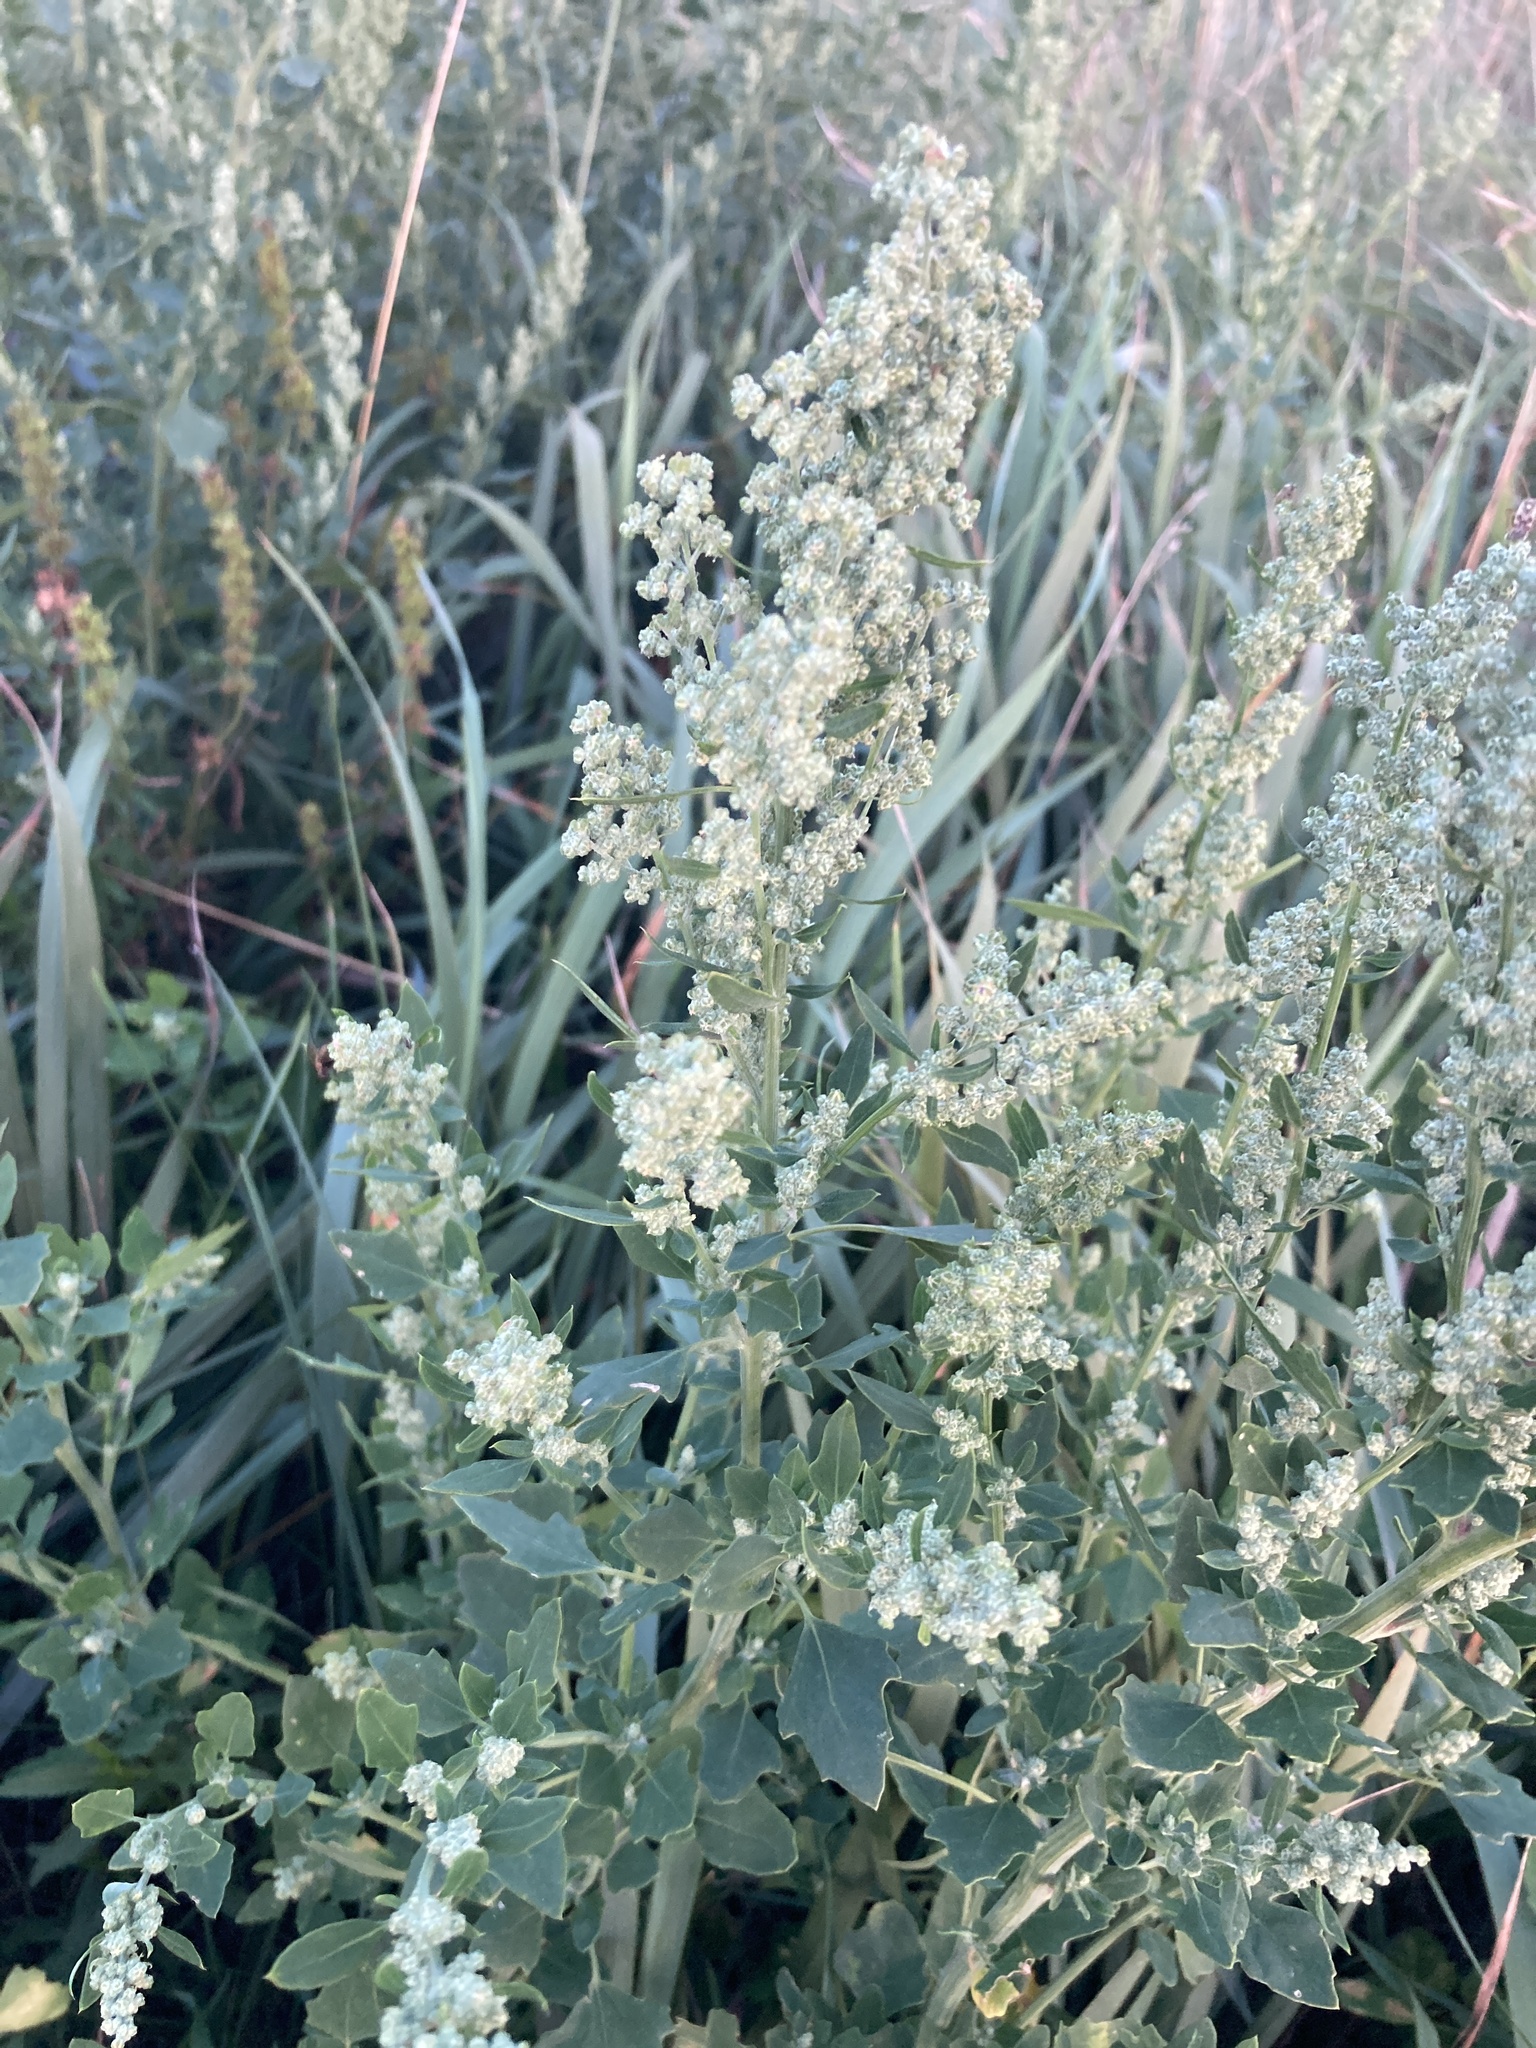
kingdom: Plantae
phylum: Tracheophyta
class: Magnoliopsida
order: Caryophyllales
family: Amaranthaceae
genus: Chenopodium
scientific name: Chenopodium album
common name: Fat-hen
